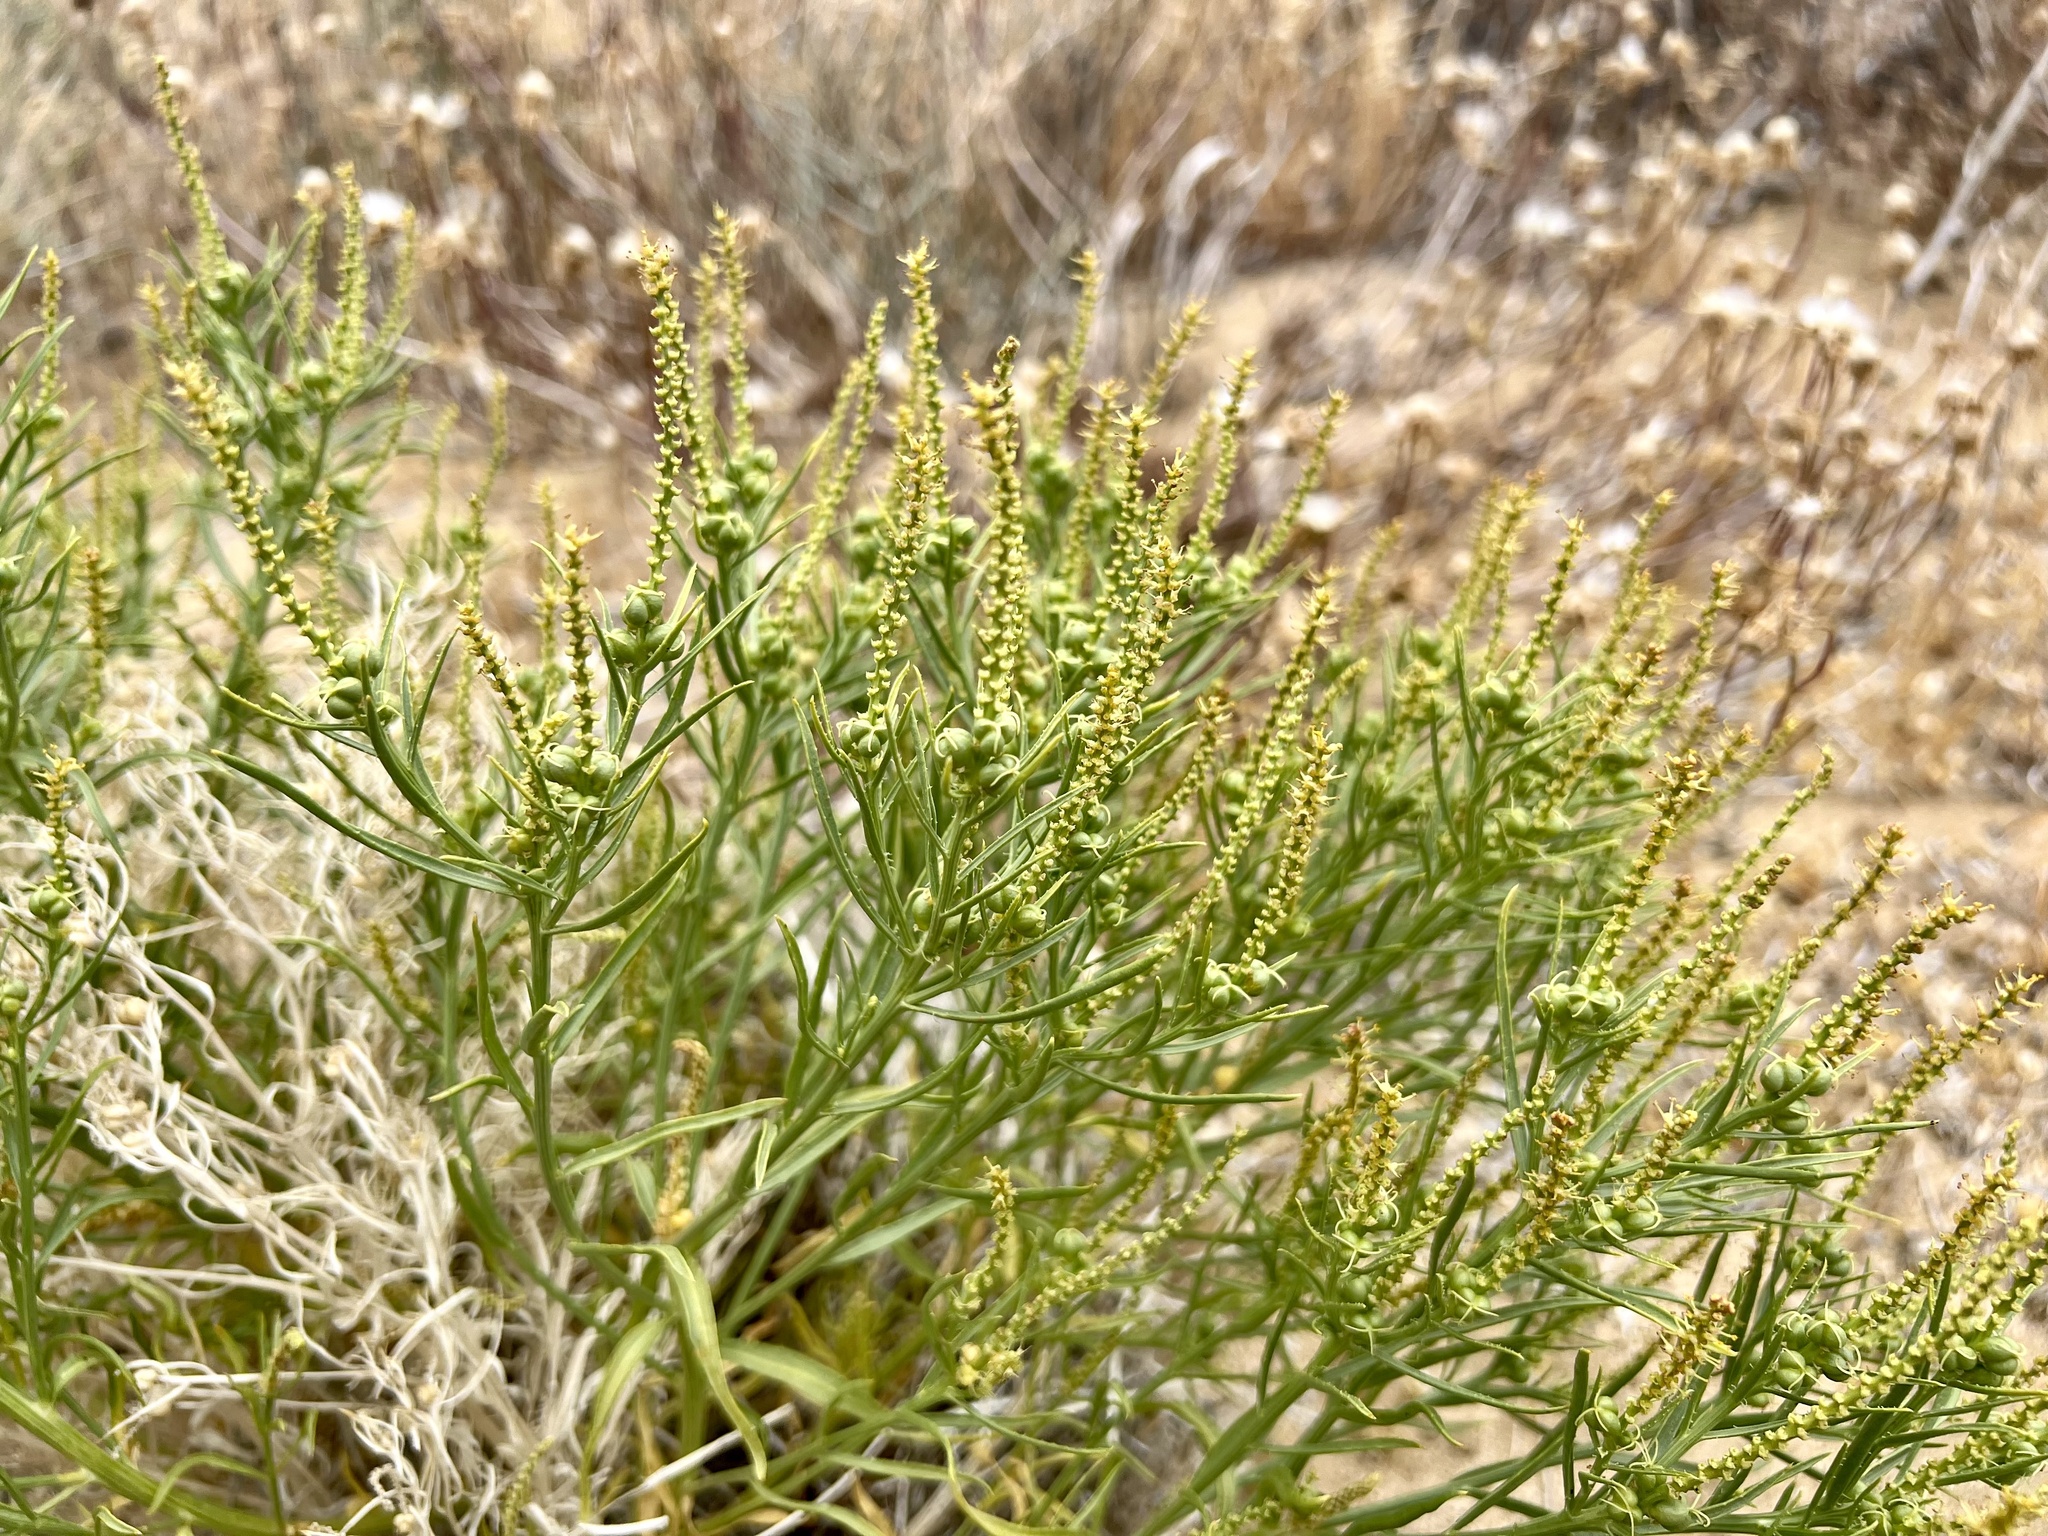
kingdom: Plantae
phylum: Tracheophyta
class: Magnoliopsida
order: Malpighiales
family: Euphorbiaceae
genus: Stillingia
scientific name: Stillingia linearifolia
